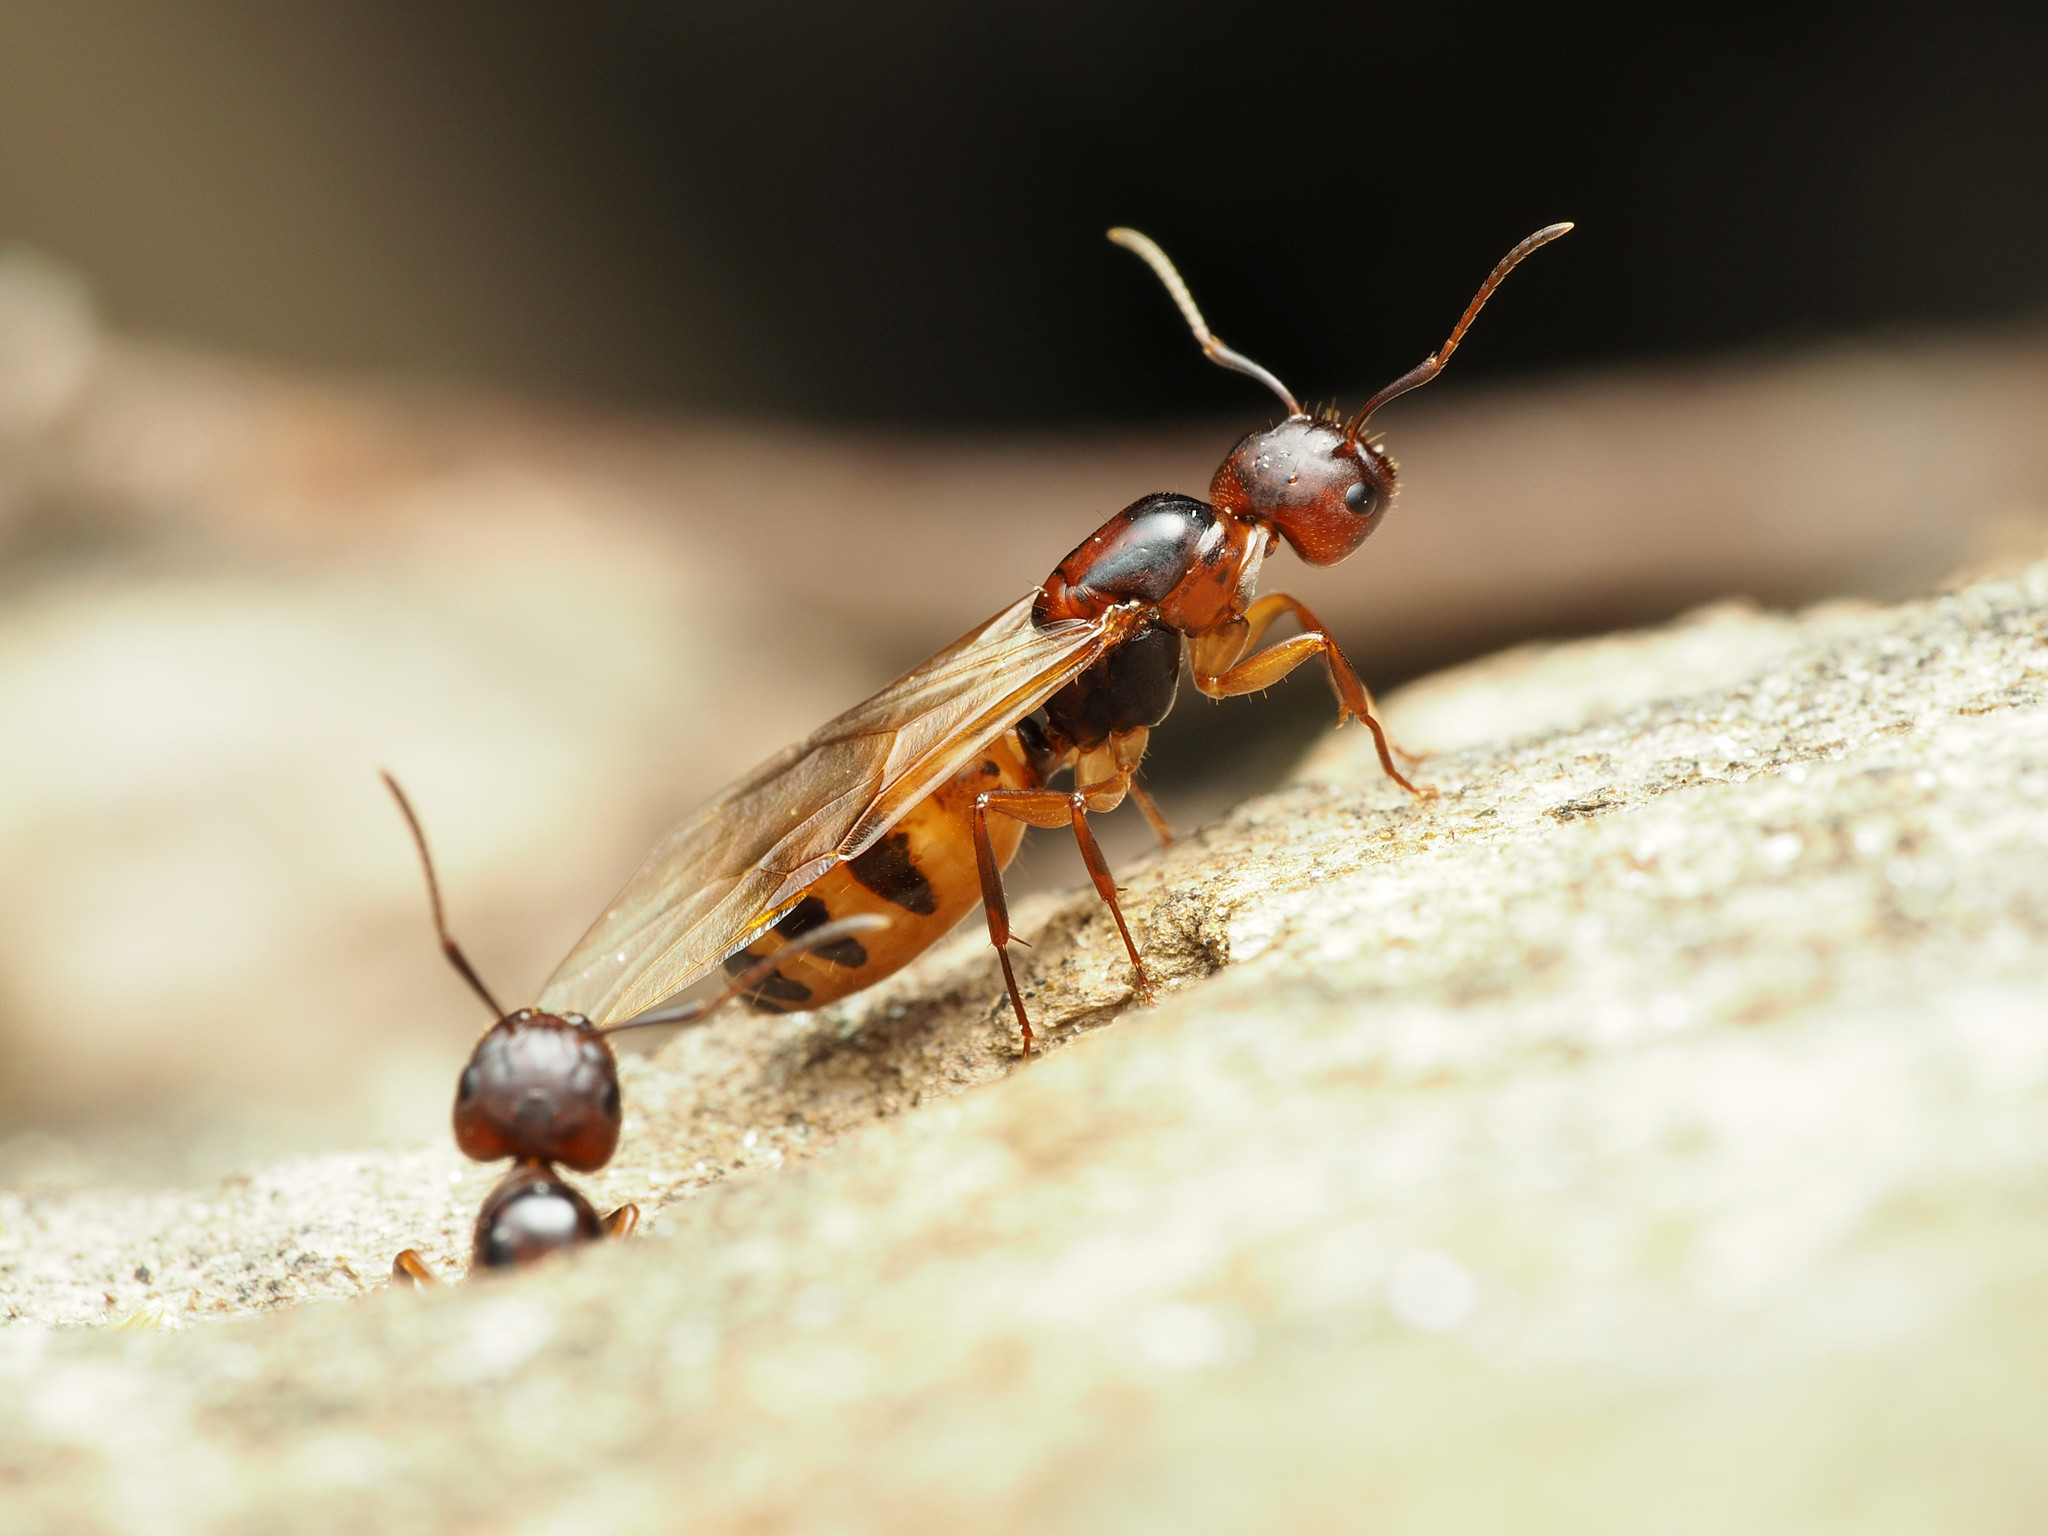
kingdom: Animalia
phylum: Arthropoda
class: Insecta
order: Hymenoptera
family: Formicidae
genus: Camponotus
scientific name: Camponotus subbarbatus
